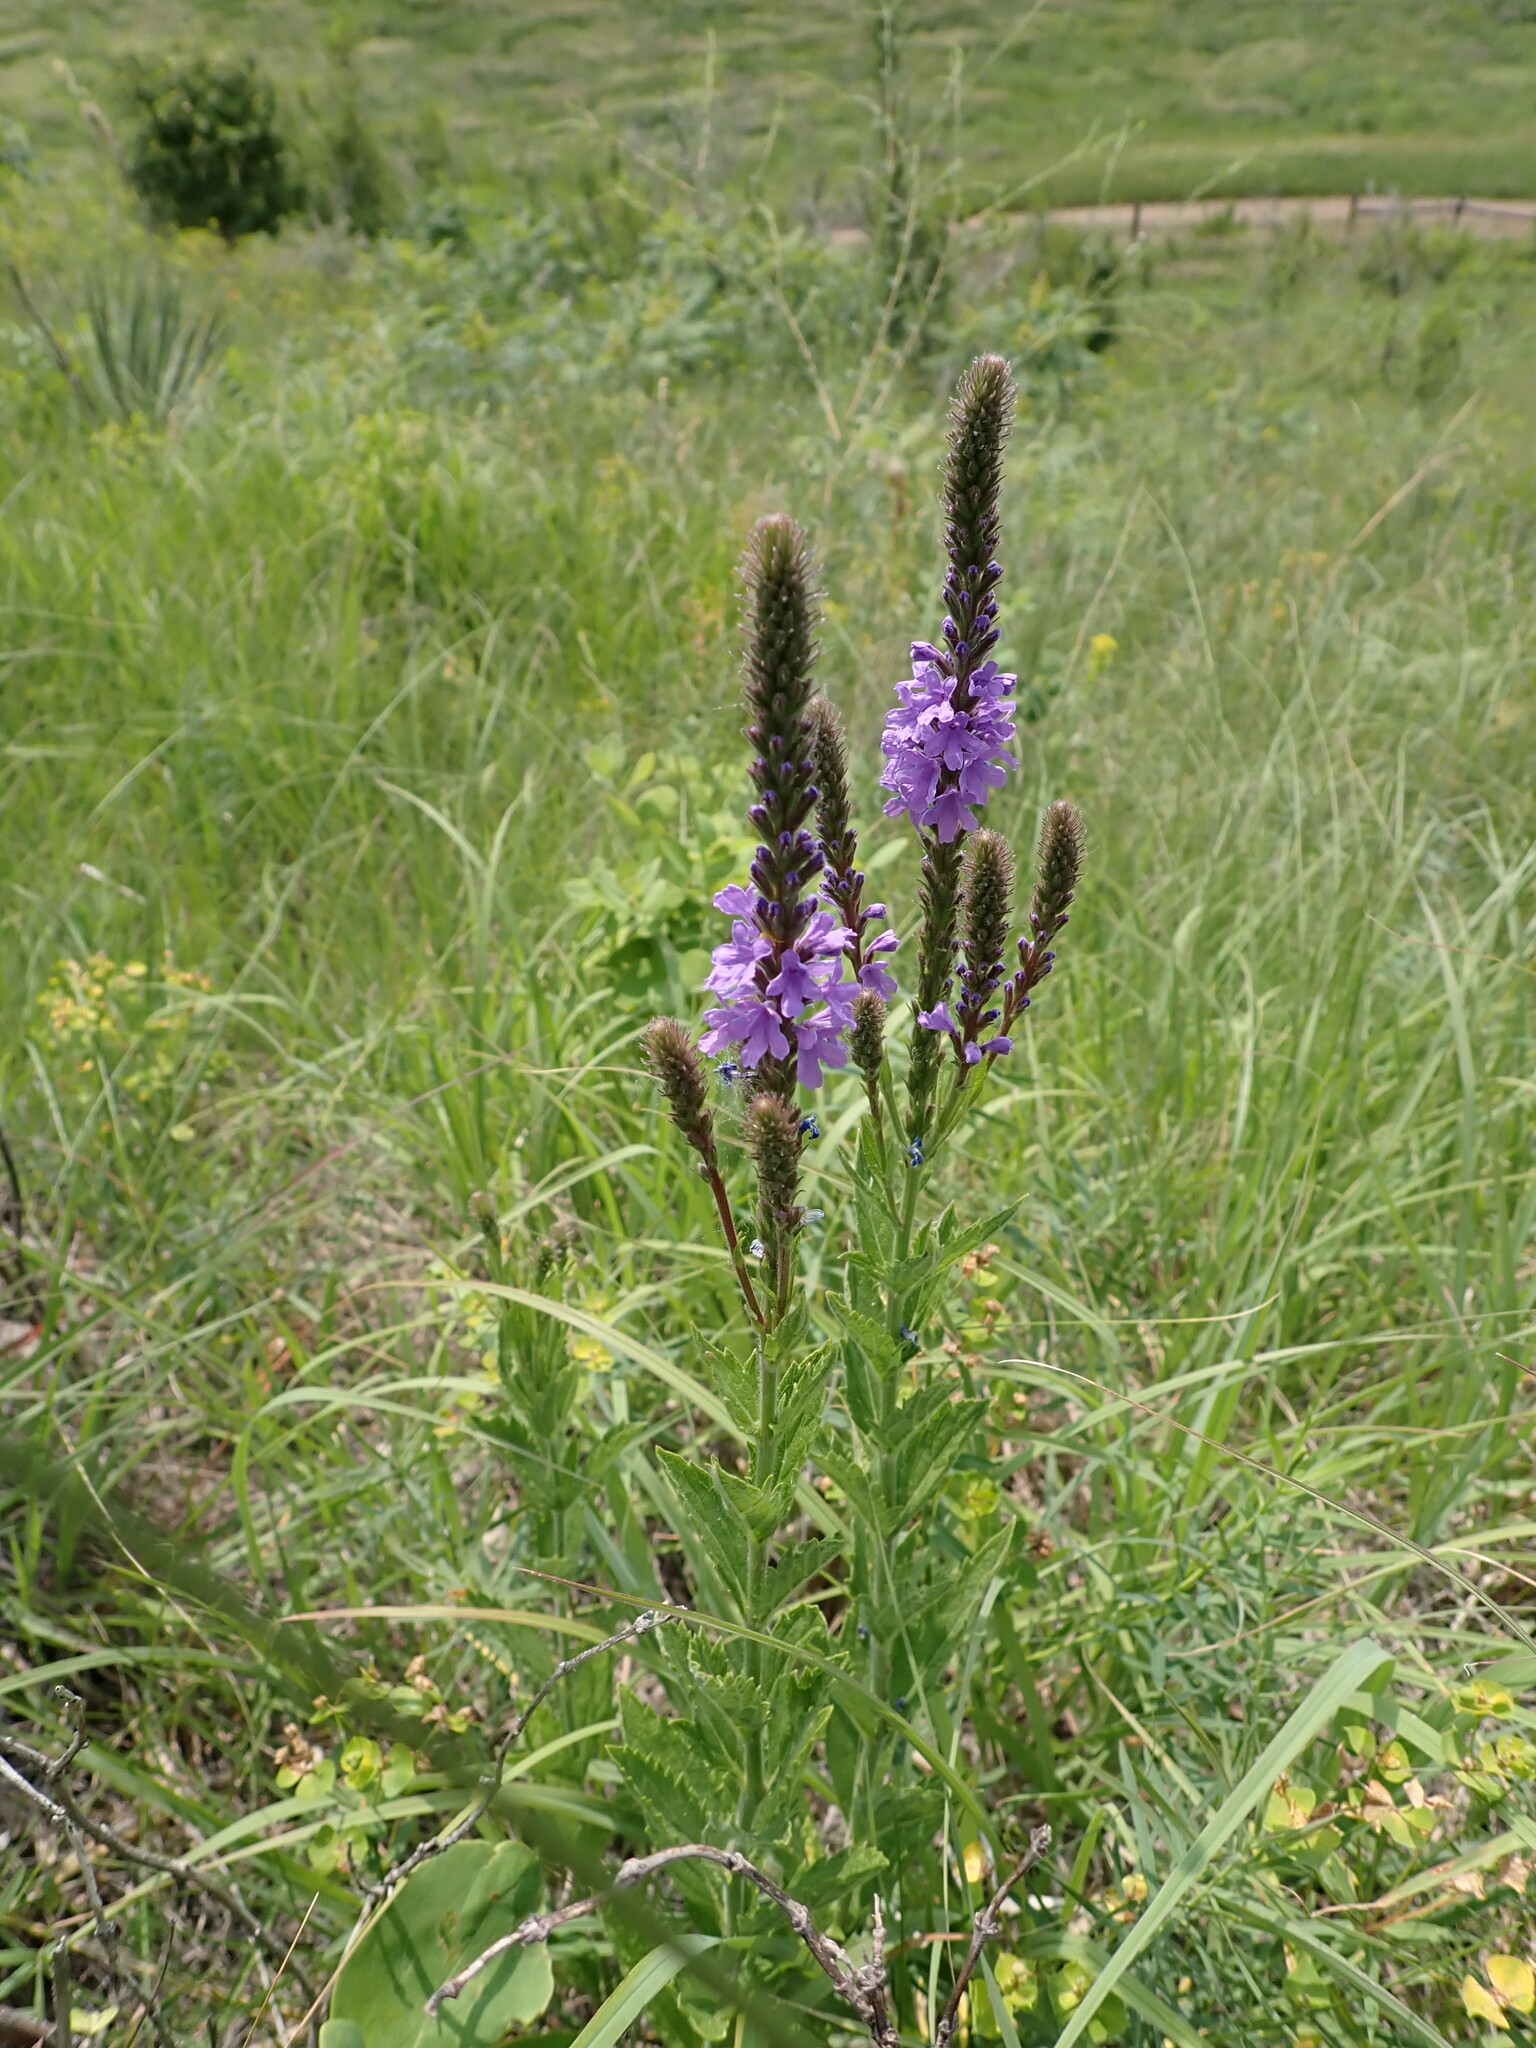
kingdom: Plantae
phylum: Tracheophyta
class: Magnoliopsida
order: Lamiales
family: Verbenaceae
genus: Verbena
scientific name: Verbena stricta
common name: Hoary vervain
